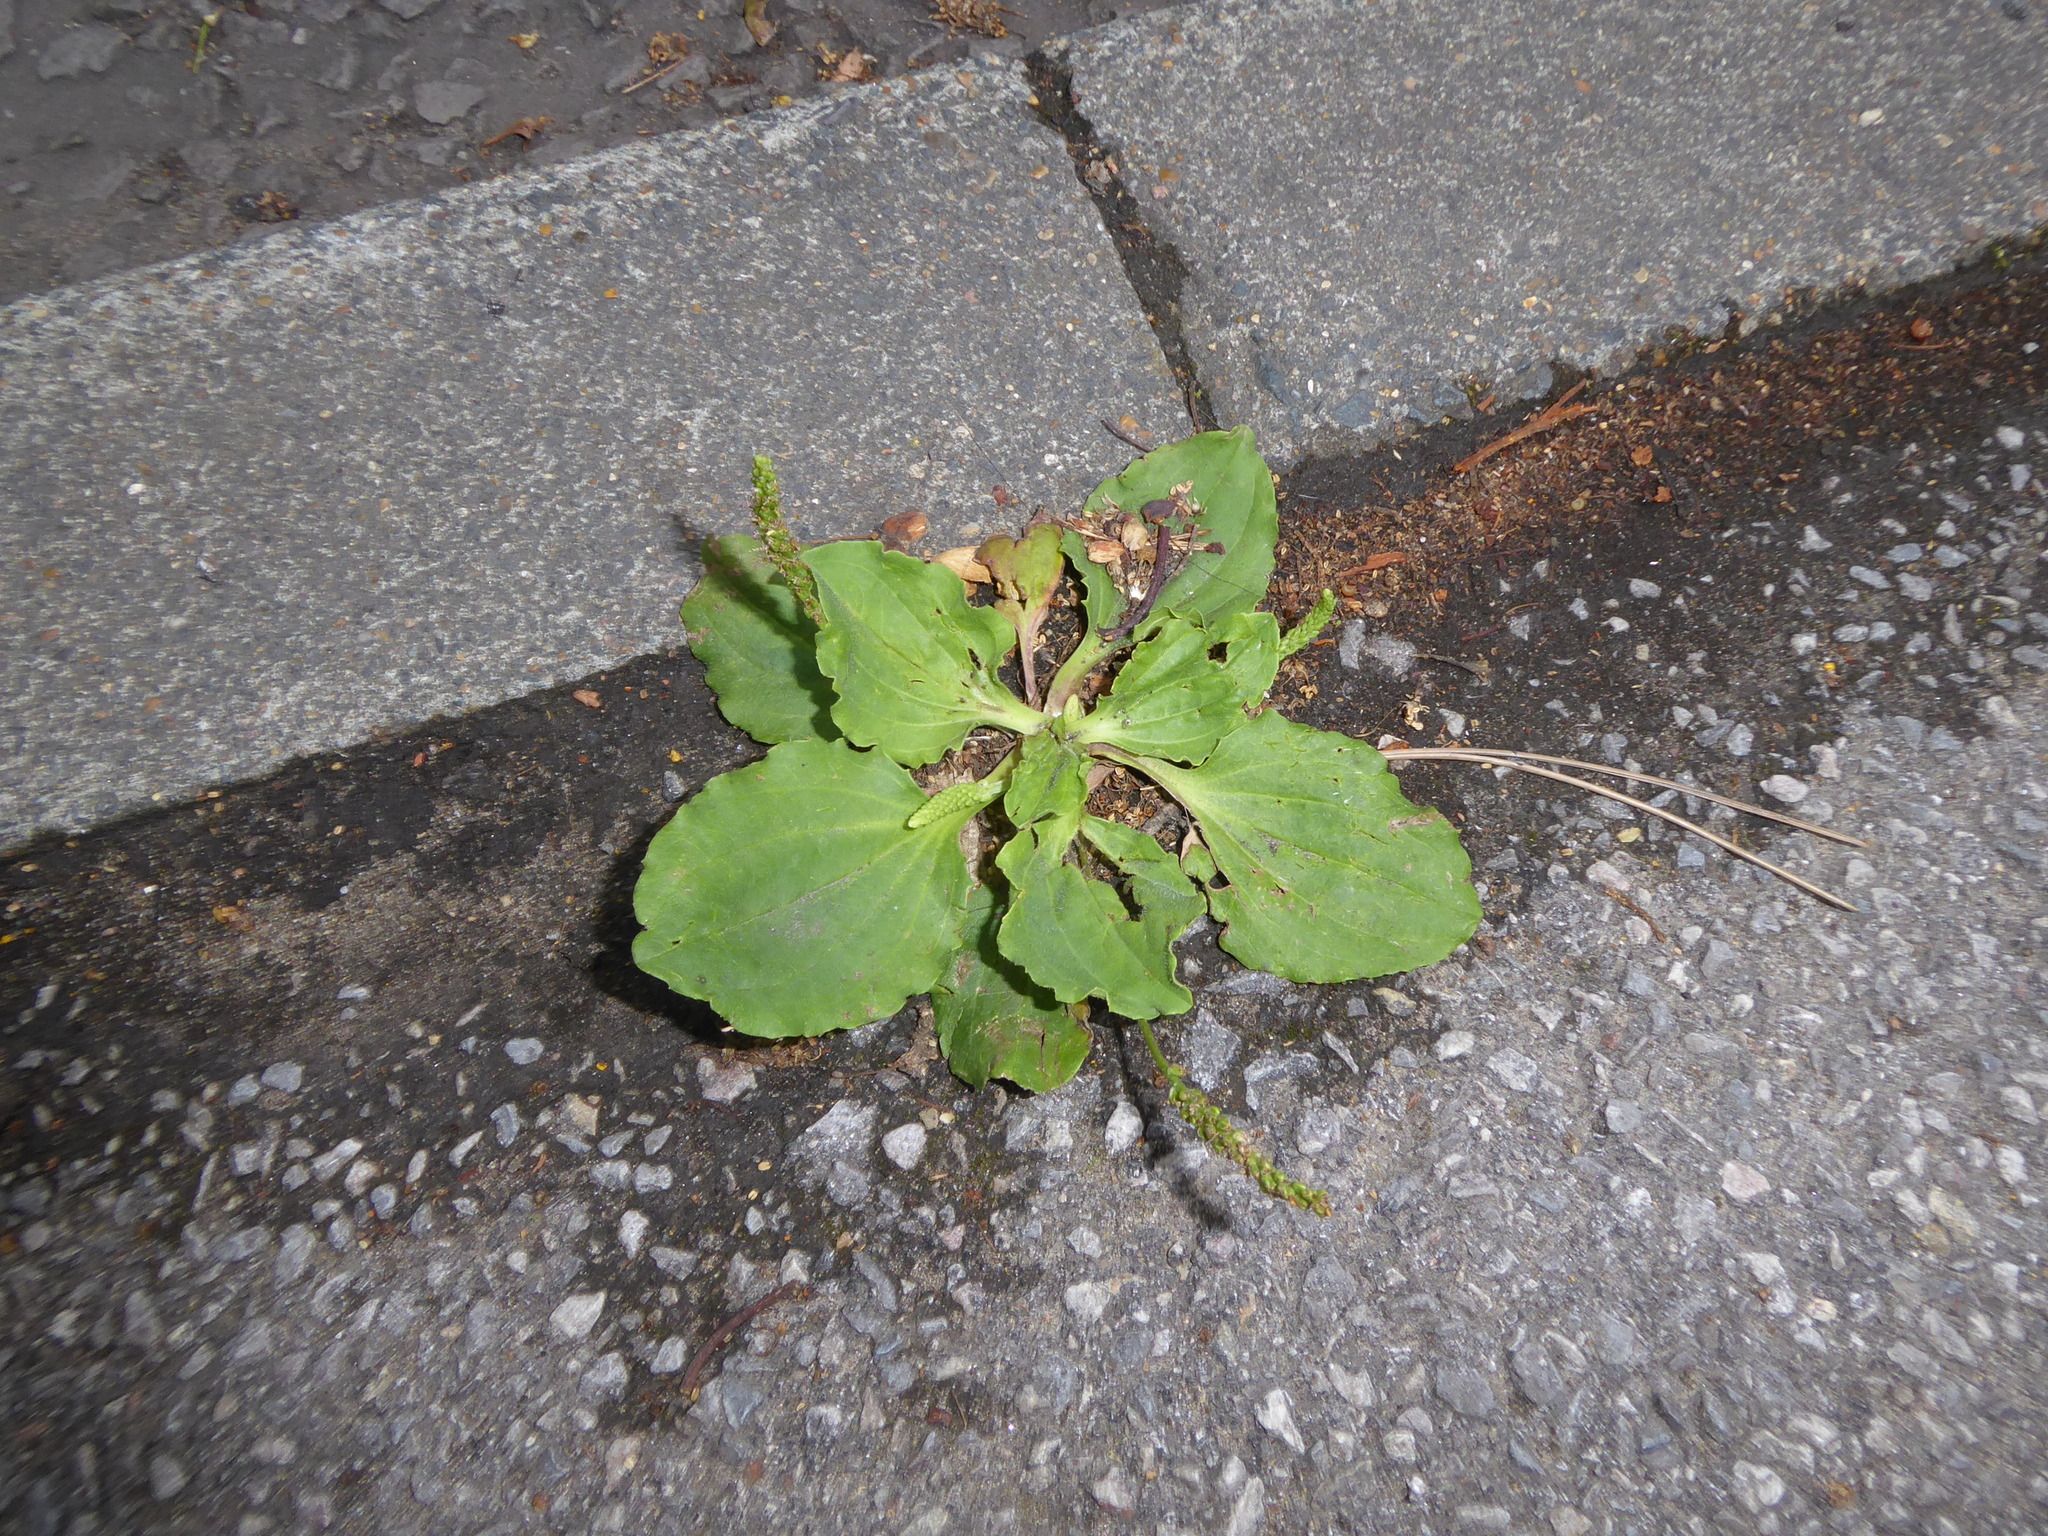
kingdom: Plantae
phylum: Tracheophyta
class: Magnoliopsida
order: Lamiales
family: Plantaginaceae
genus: Plantago
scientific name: Plantago major
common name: Common plantain
